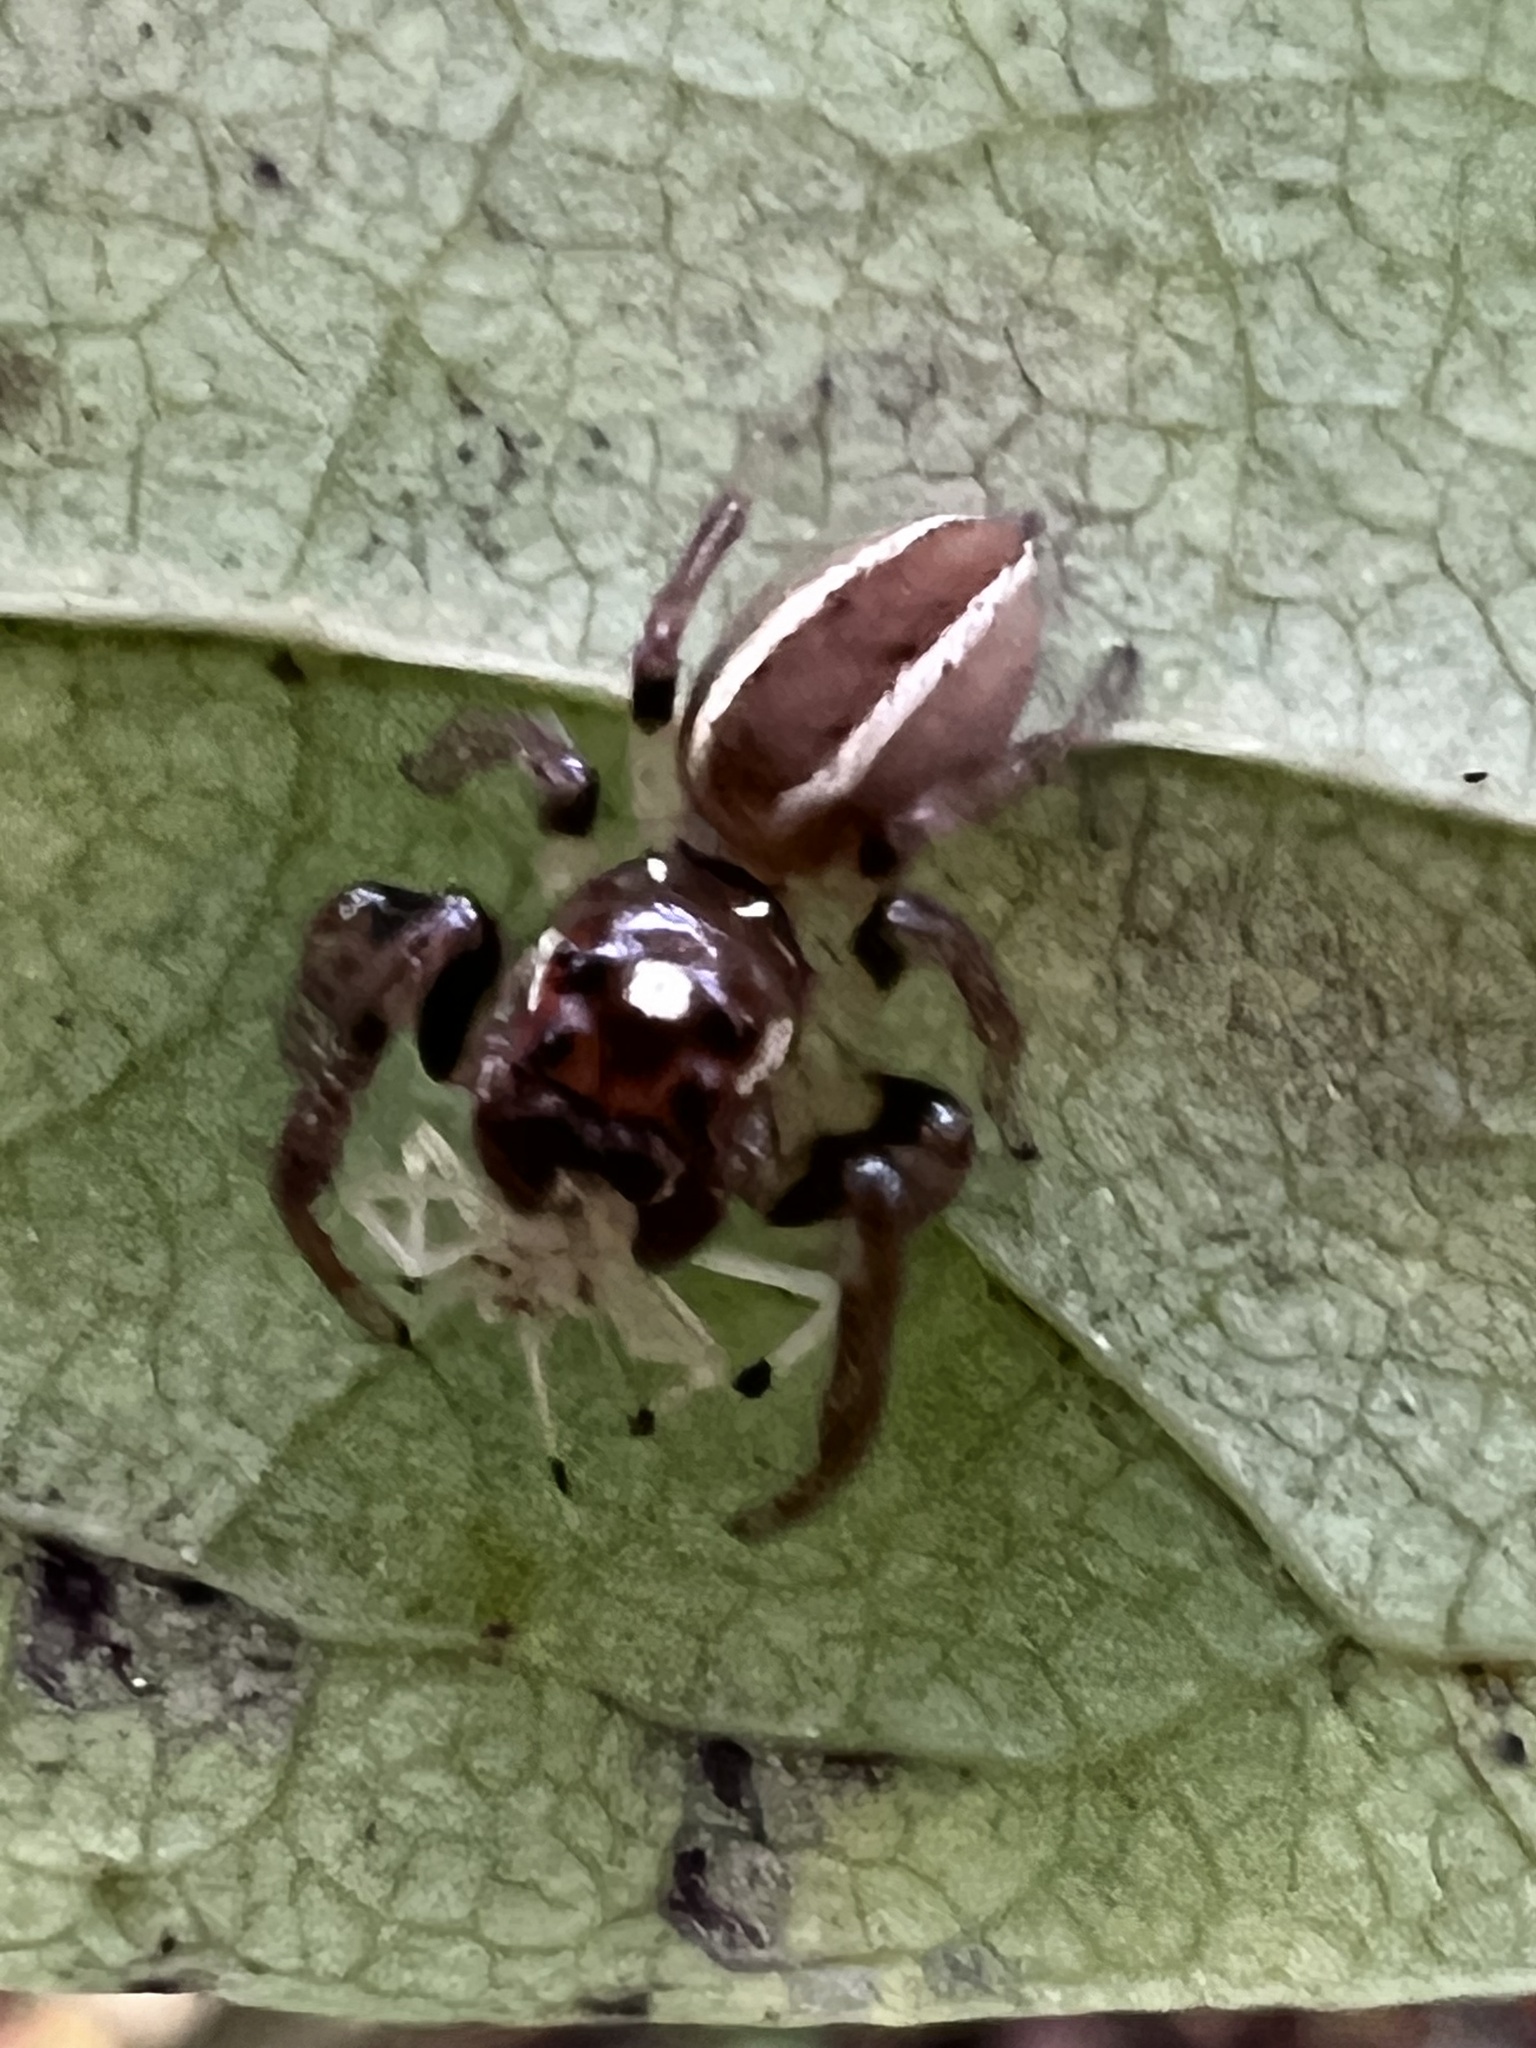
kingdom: Animalia
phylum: Arthropoda
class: Arachnida
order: Araneae
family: Salticidae
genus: Colonus
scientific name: Colonus sylvanus
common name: Jumping spiders
